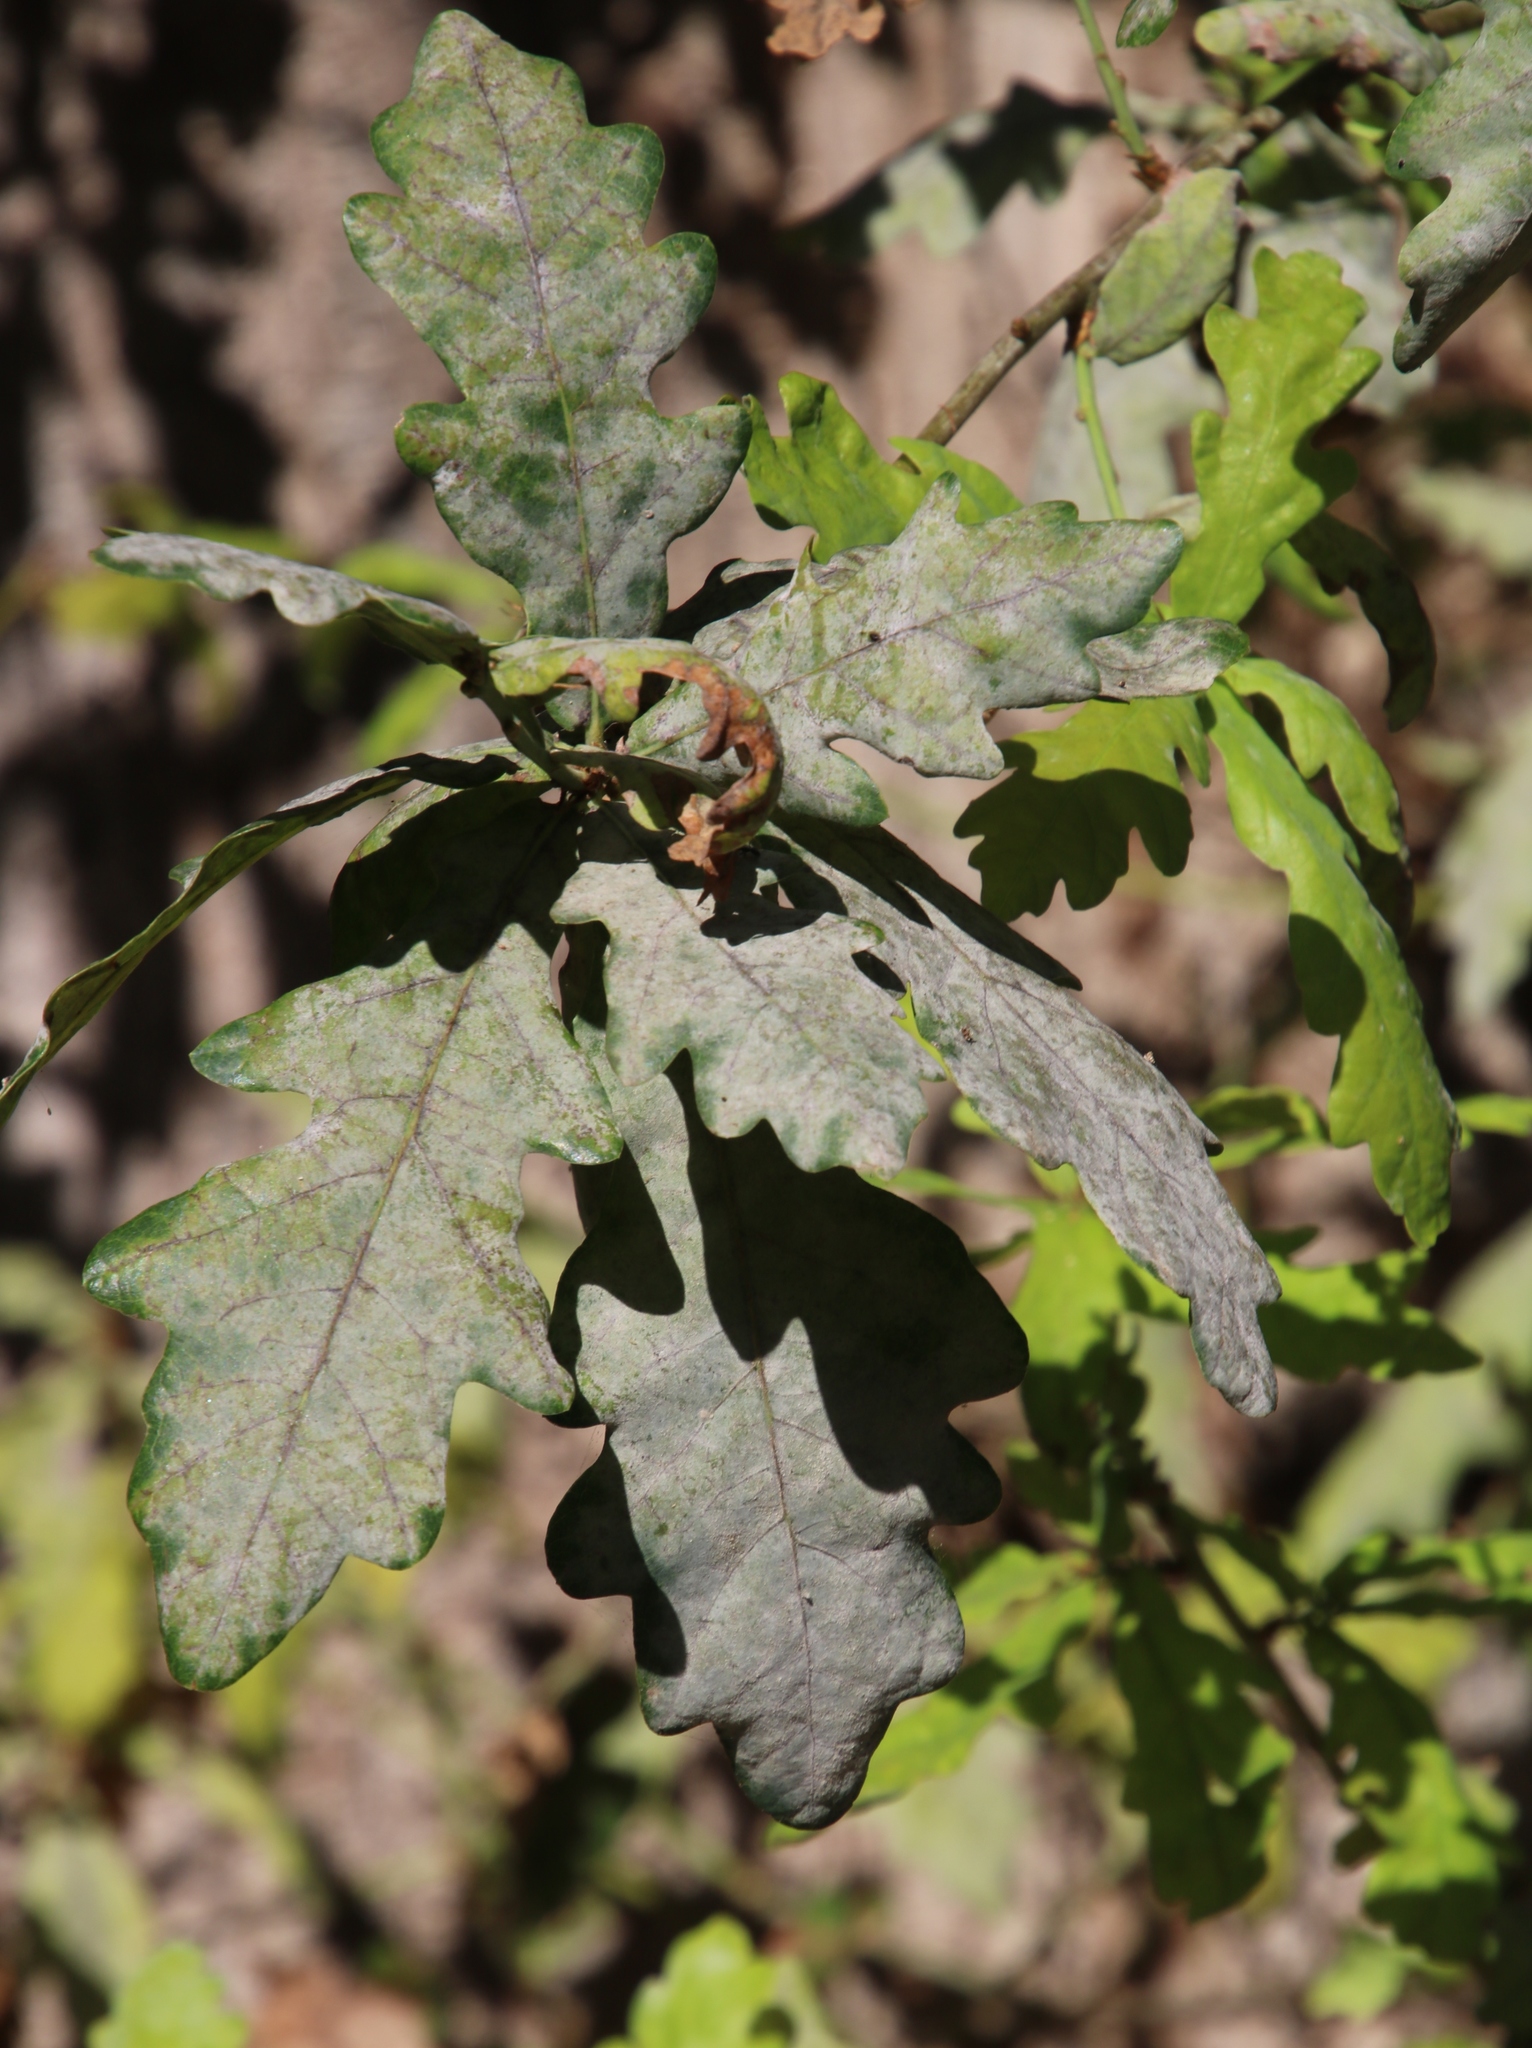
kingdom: Fungi
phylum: Ascomycota
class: Leotiomycetes
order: Helotiales
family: Erysiphaceae
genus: Erysiphe
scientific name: Erysiphe alphitoides
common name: Oak mildew
